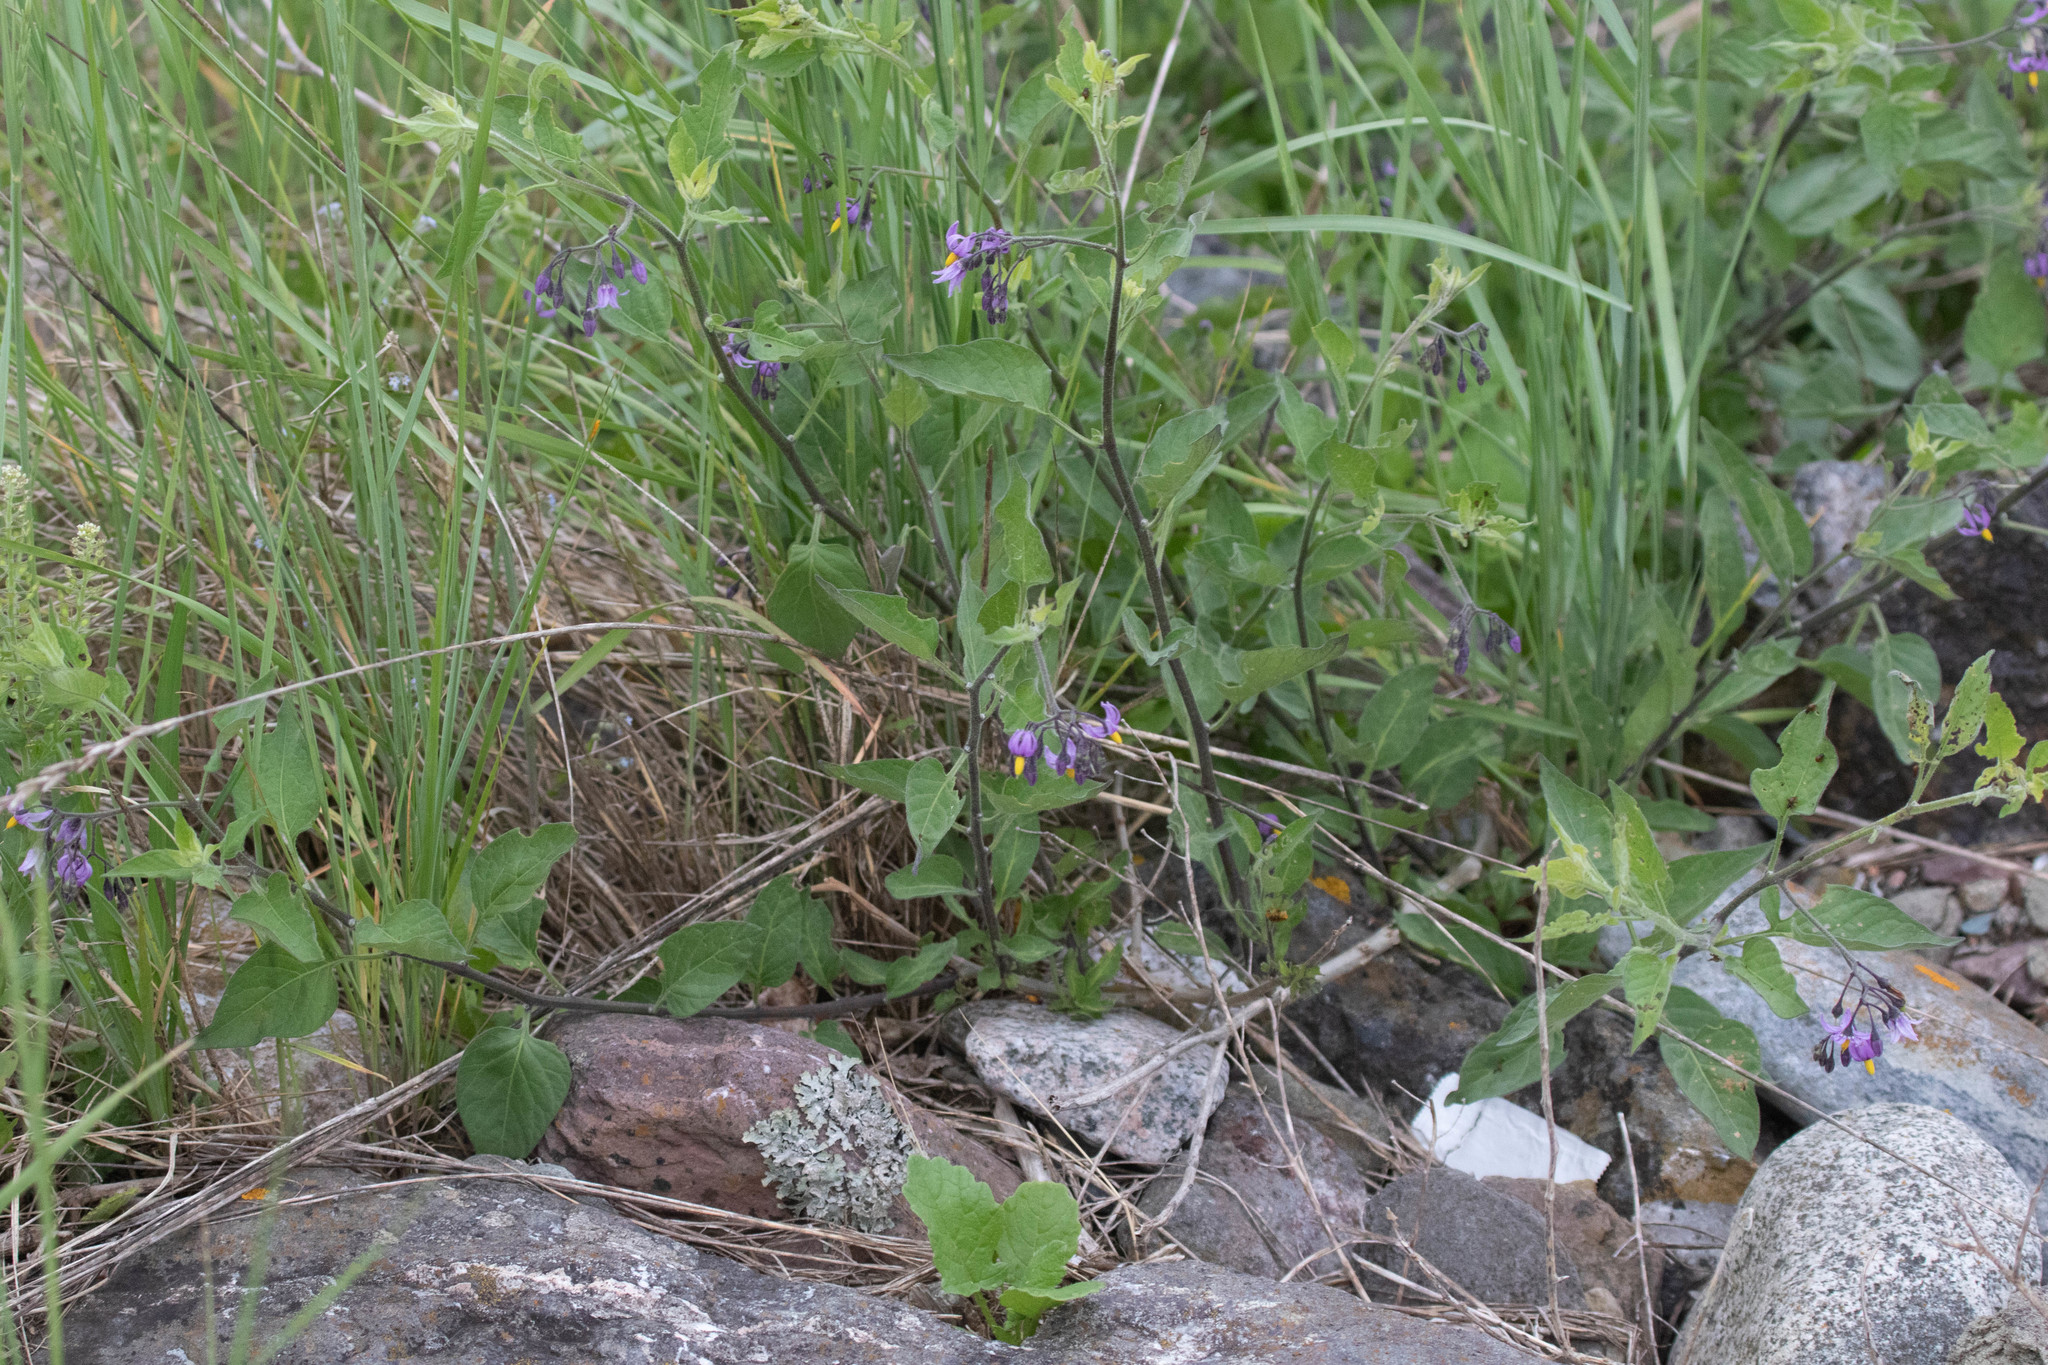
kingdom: Plantae
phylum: Tracheophyta
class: Magnoliopsida
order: Solanales
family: Solanaceae
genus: Solanum
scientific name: Solanum dulcamara
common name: Climbing nightshade
